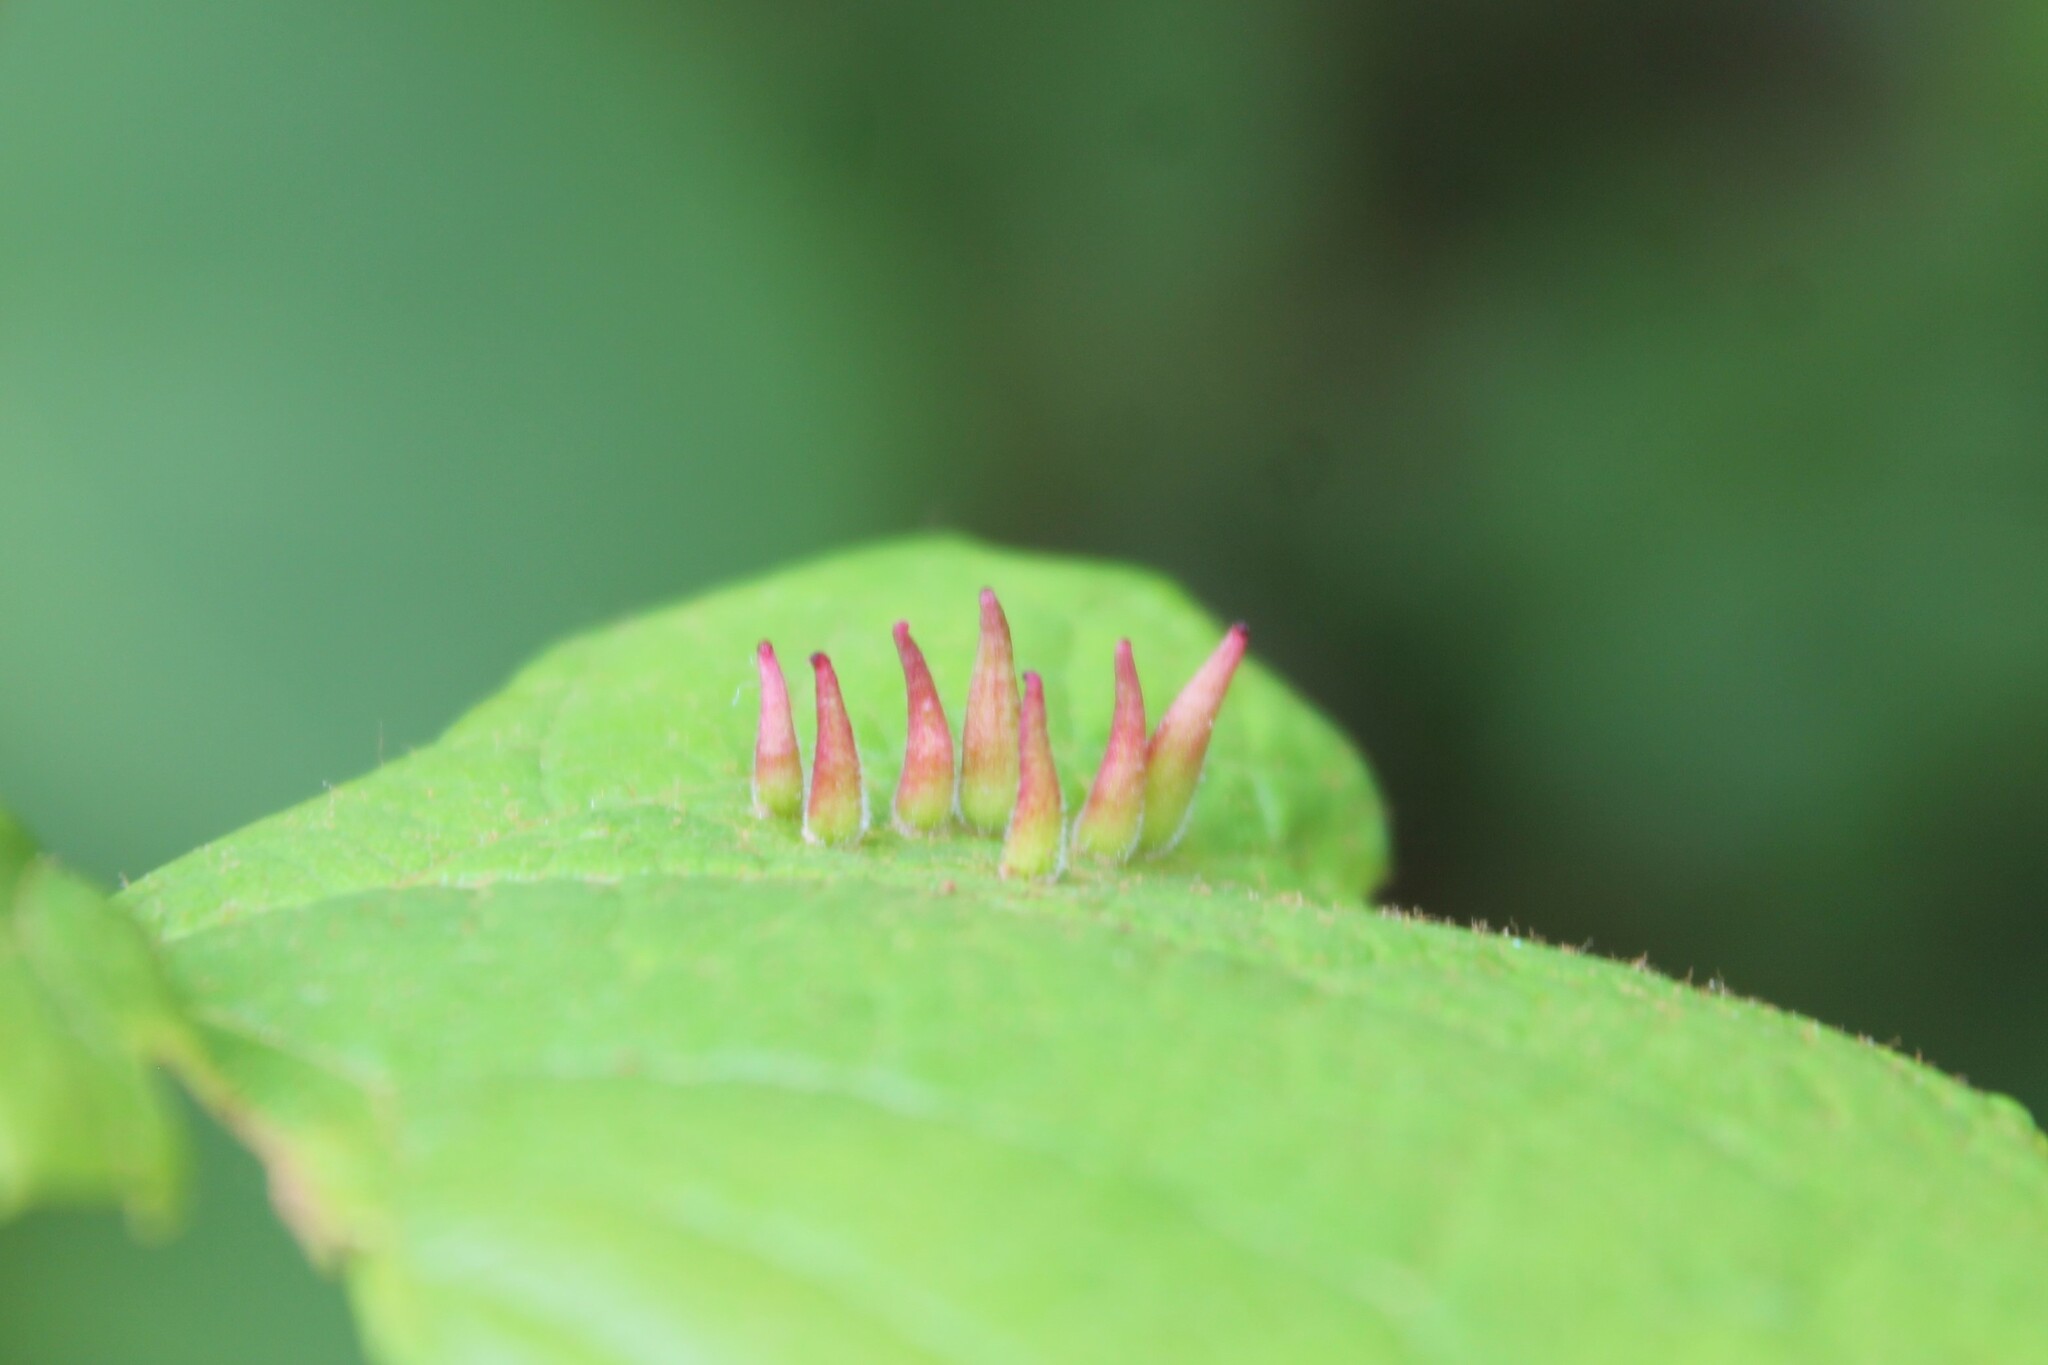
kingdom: Animalia
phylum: Arthropoda
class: Insecta
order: Diptera
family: Cecidomyiidae
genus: Ampelomyia
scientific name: Ampelomyia viticola
